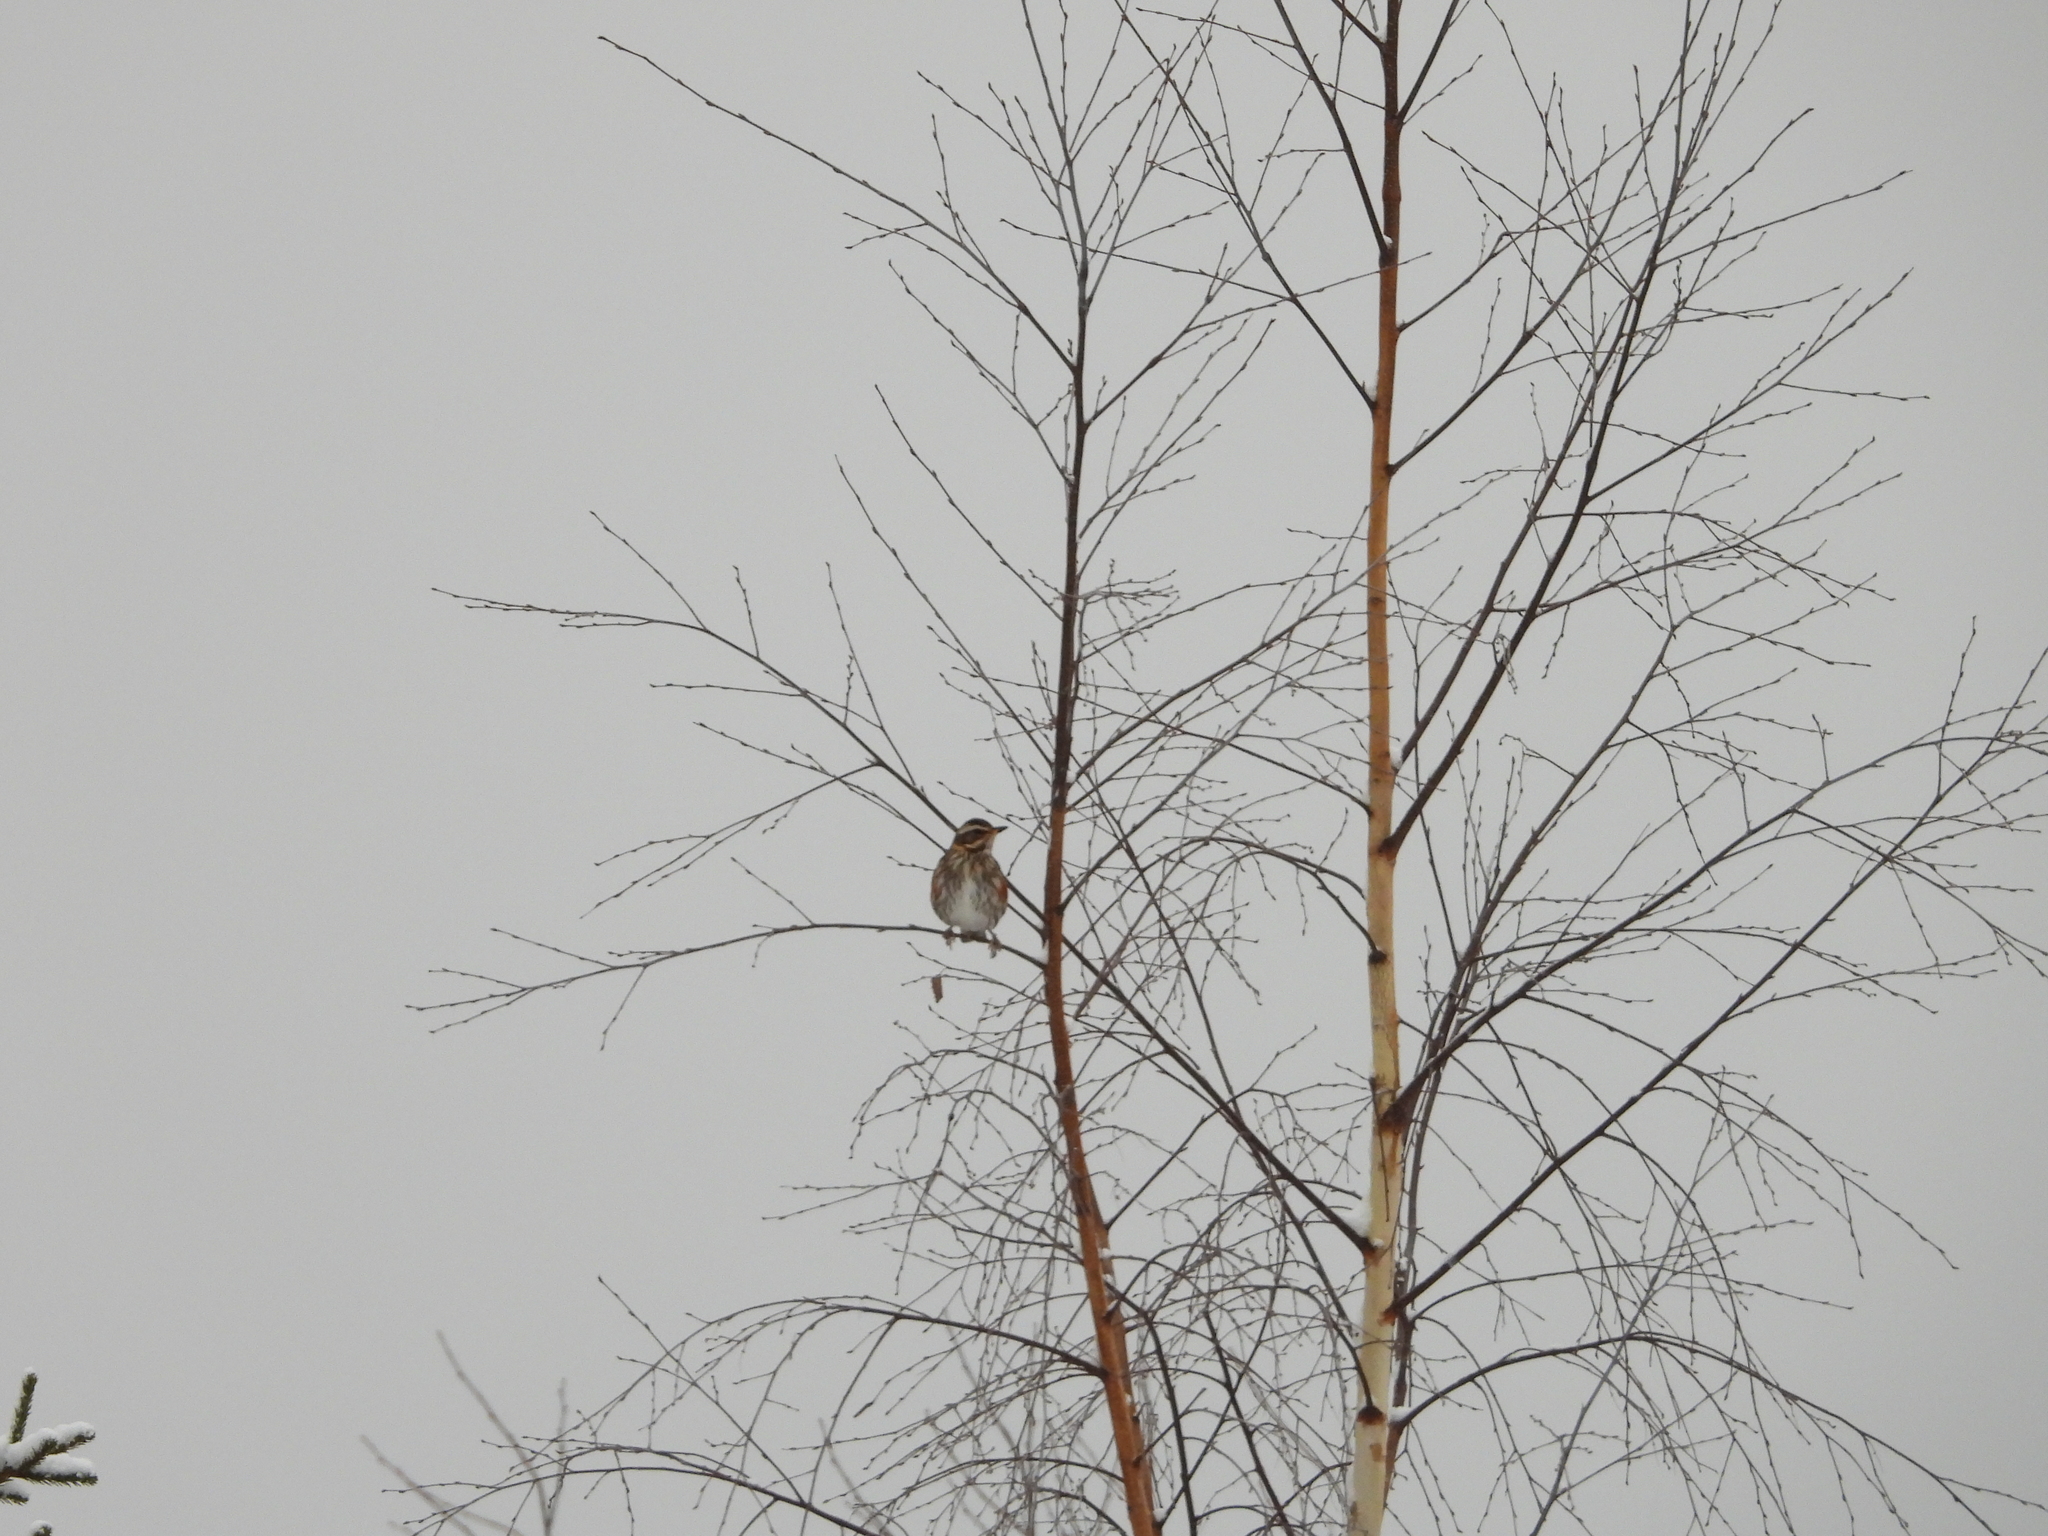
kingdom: Animalia
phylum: Chordata
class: Aves
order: Passeriformes
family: Turdidae
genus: Turdus
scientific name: Turdus iliacus
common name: Redwing
